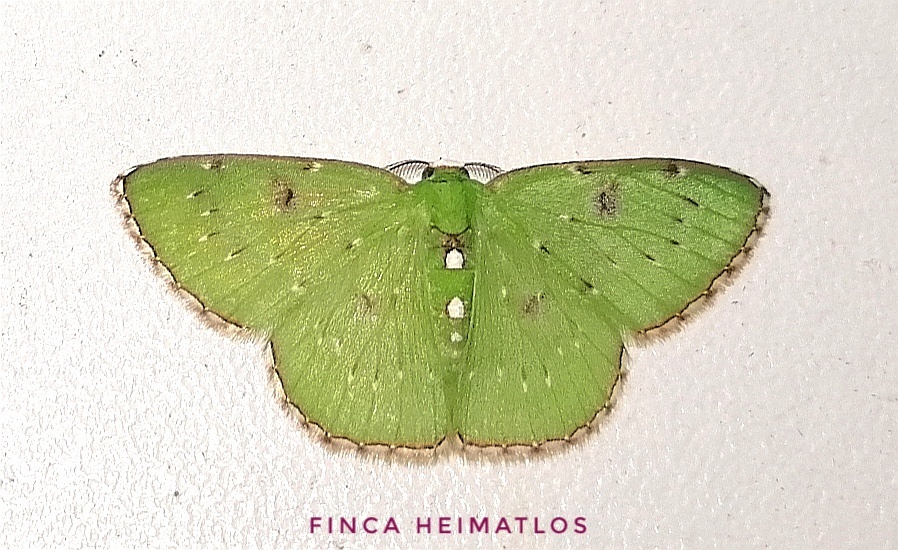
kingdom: Animalia
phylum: Arthropoda
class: Insecta
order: Lepidoptera
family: Geometridae
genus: Lissochlora
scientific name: Lissochlora albociliaria
